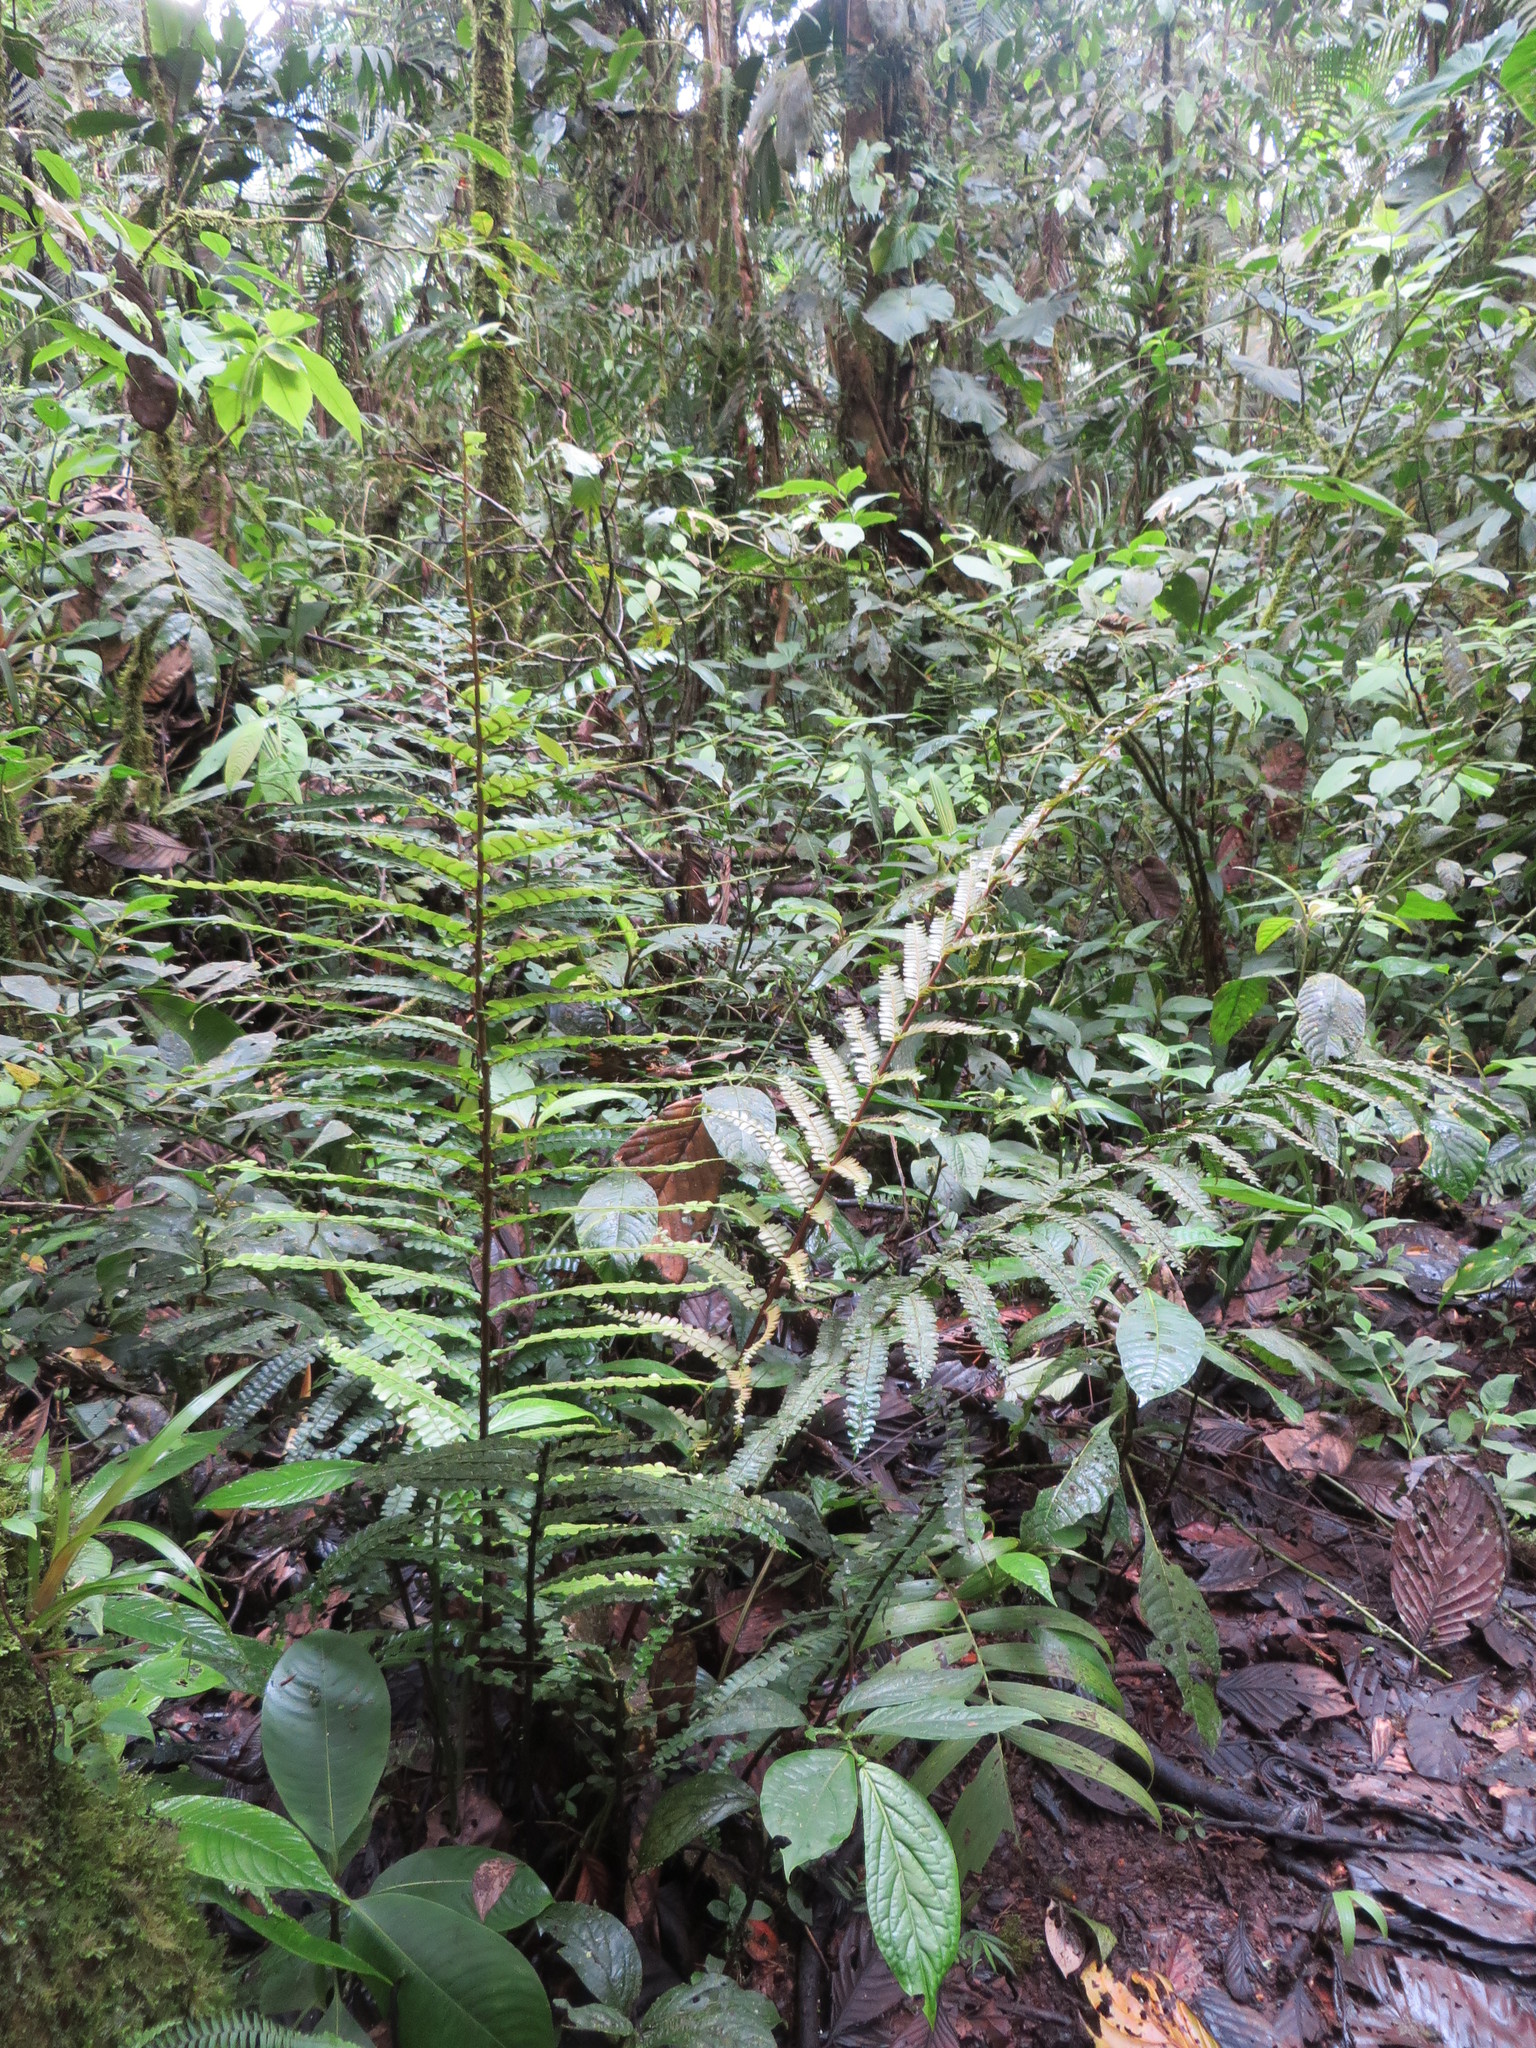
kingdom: Plantae
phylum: Tracheophyta
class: Polypodiopsida
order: Polypodiales
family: Didymochlaenaceae
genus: Didymochlaena
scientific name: Didymochlaena truncatula
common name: Mahogany fern
